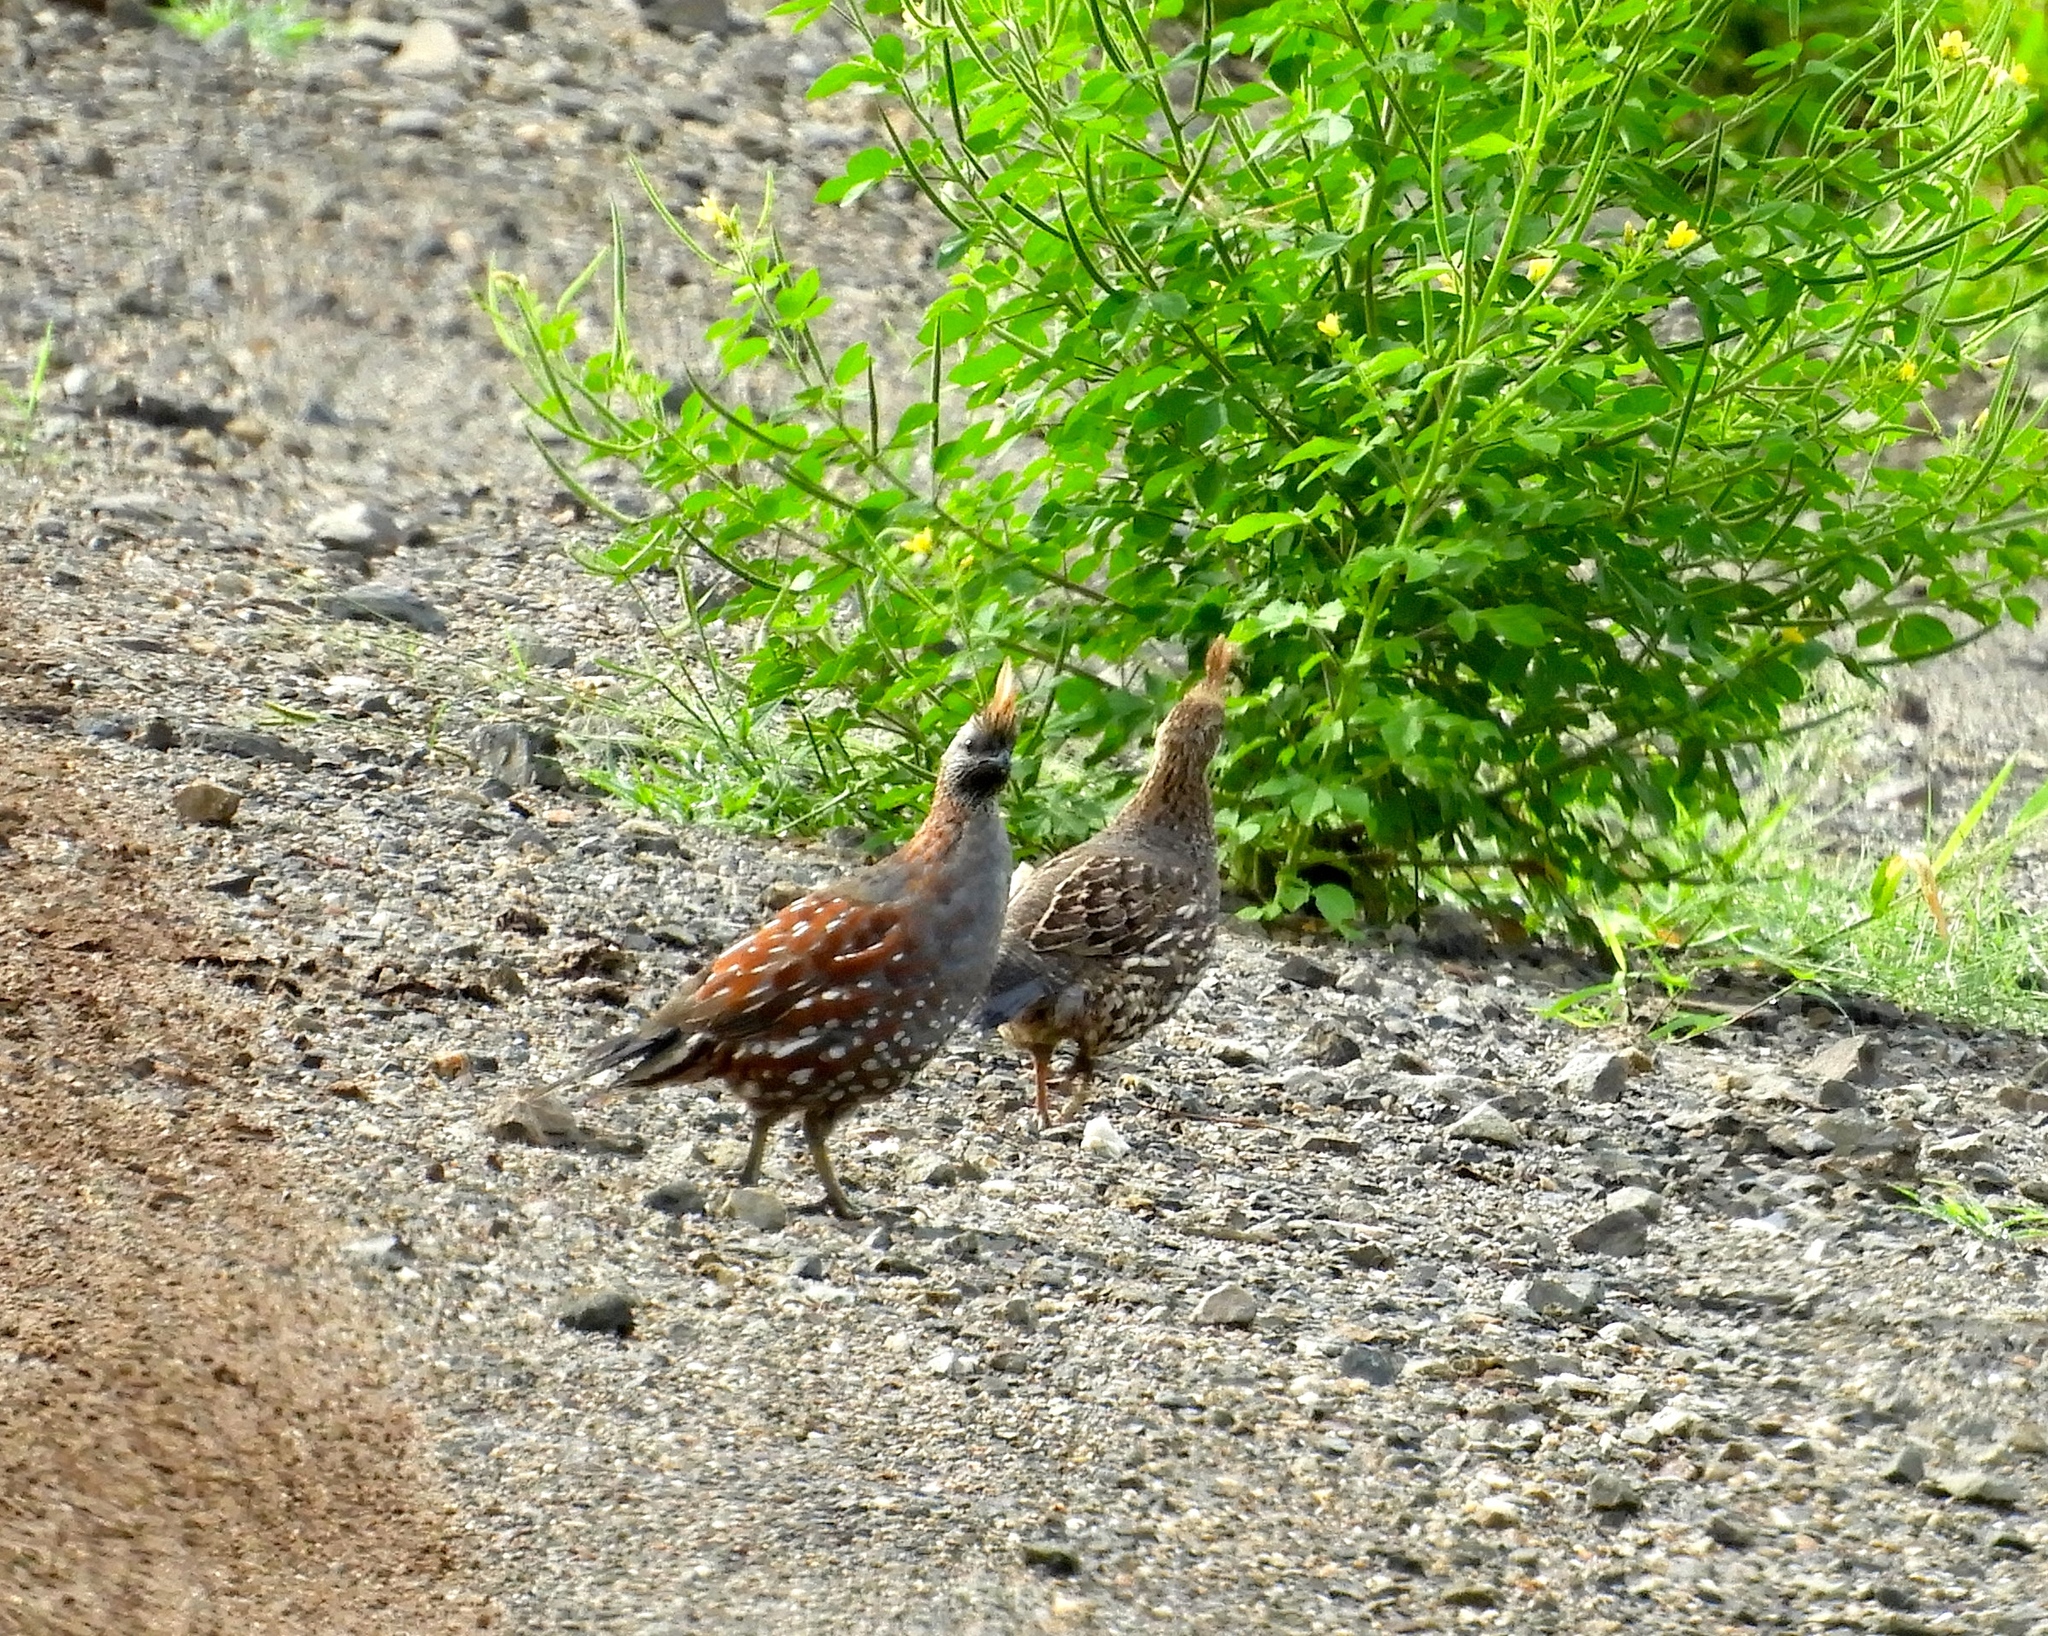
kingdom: Animalia
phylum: Chordata
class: Aves
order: Galliformes
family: Odontophoridae
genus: Callipepla
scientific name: Callipepla douglasii
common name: Elegant quail
